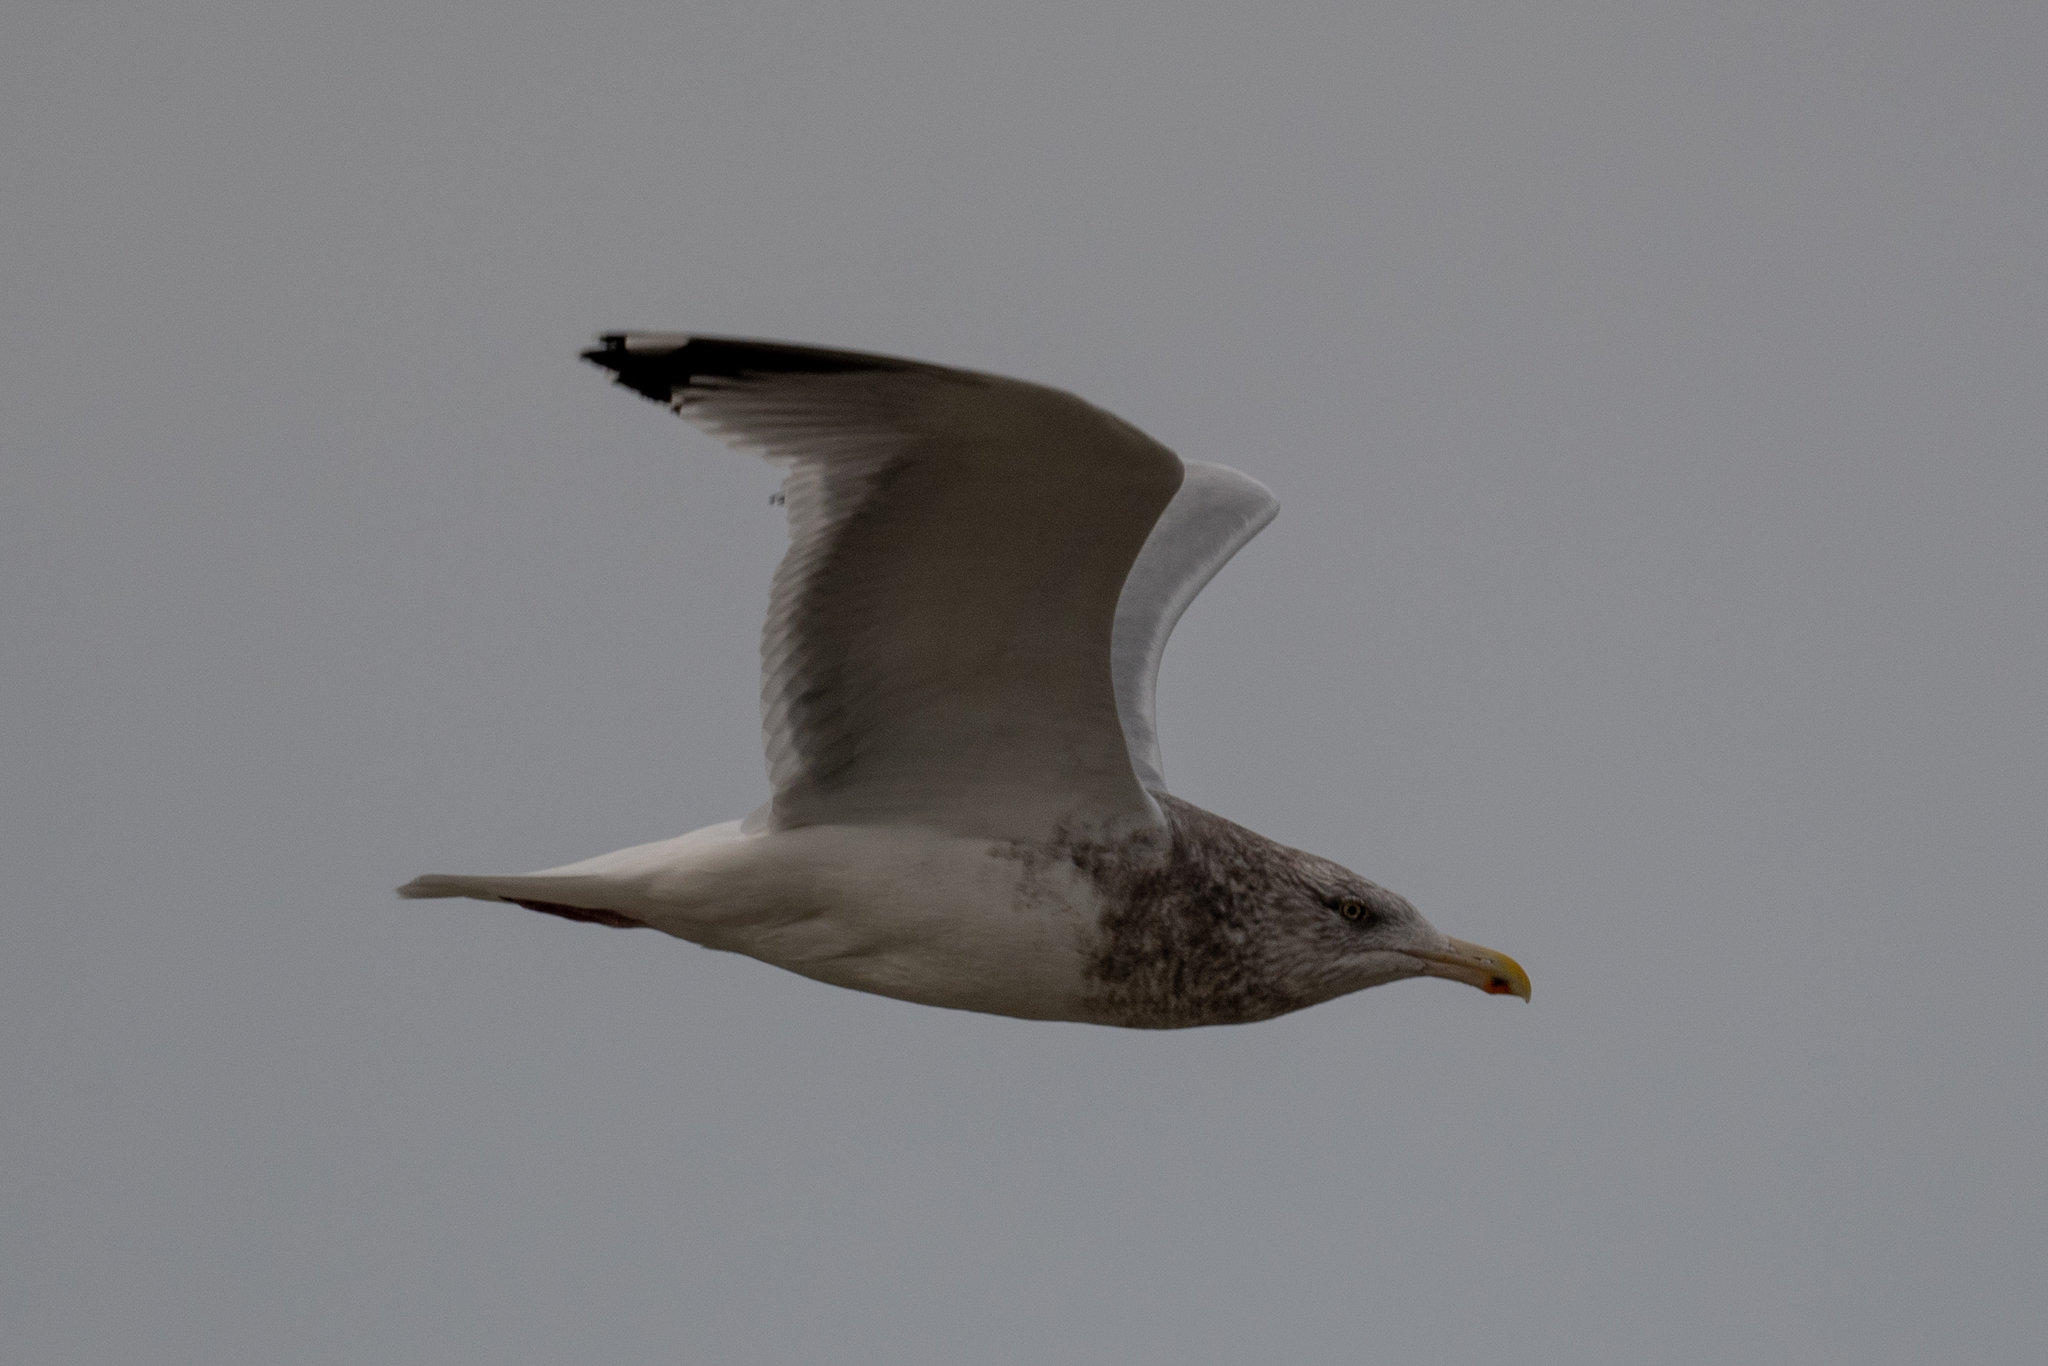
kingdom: Animalia
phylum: Chordata
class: Aves
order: Charadriiformes
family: Laridae
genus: Larus
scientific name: Larus argentatus
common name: Herring gull
